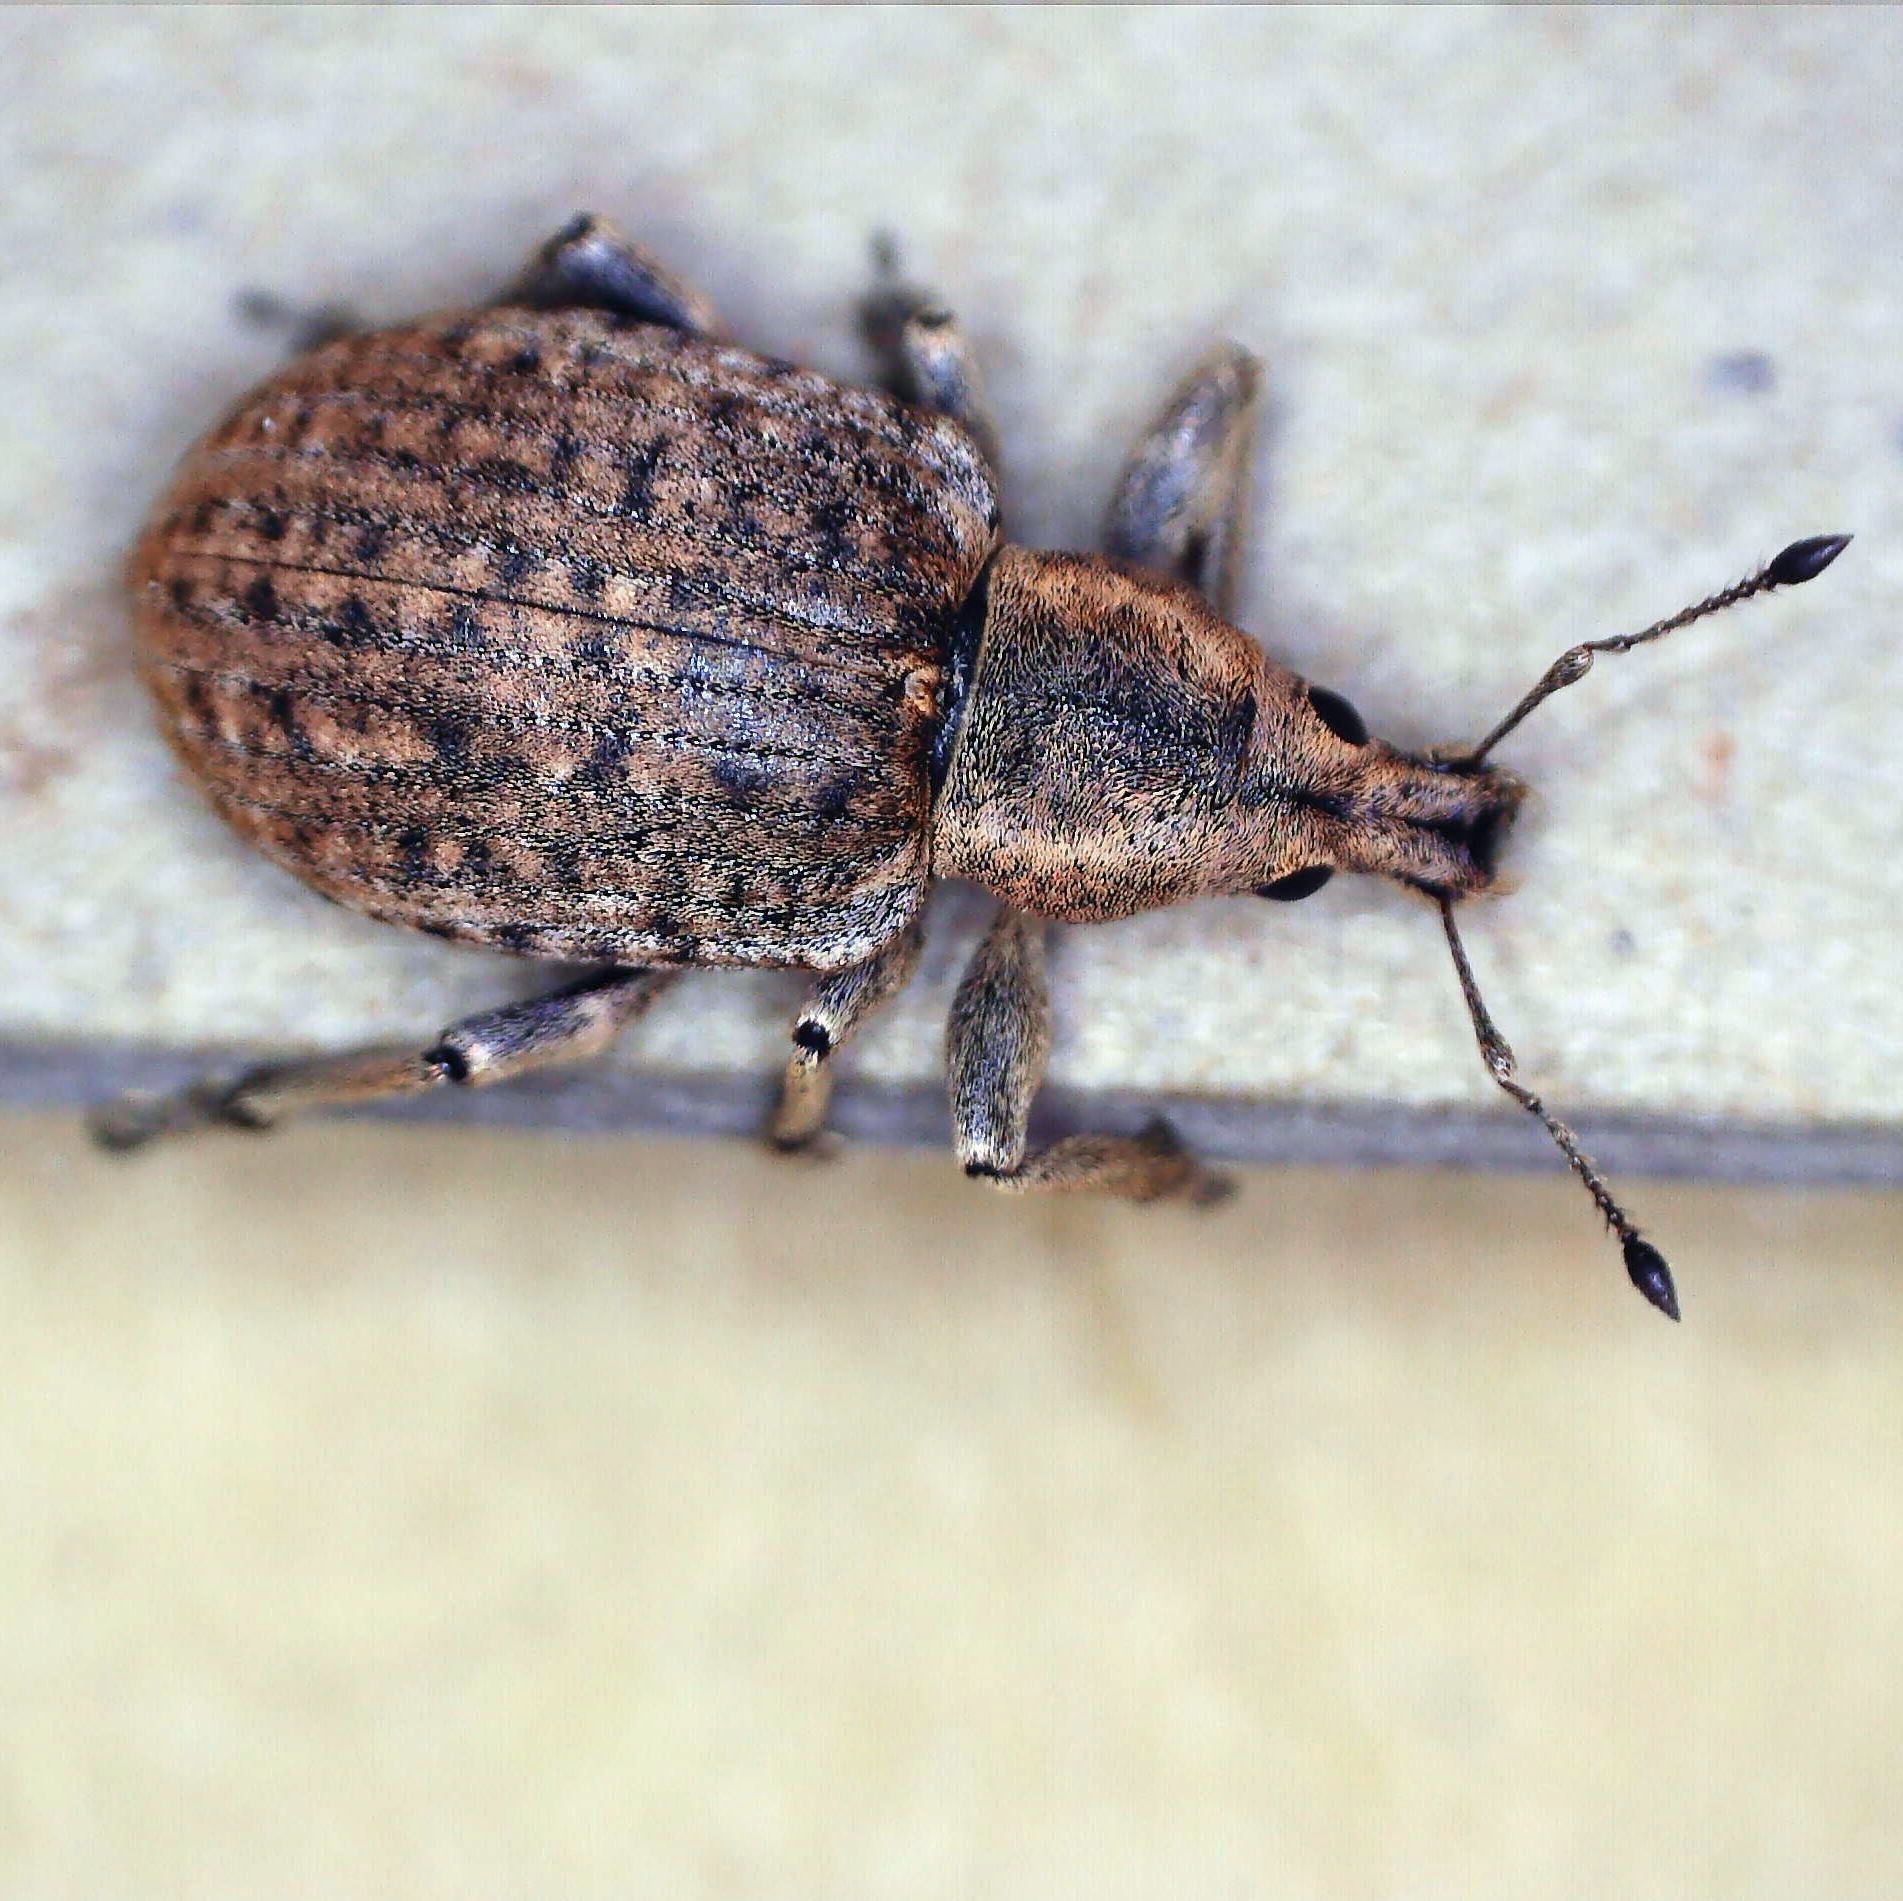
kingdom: Animalia
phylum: Arthropoda
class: Insecta
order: Coleoptera
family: Curculionidae
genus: Liophloeus
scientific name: Liophloeus tessulatus
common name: Weevil
